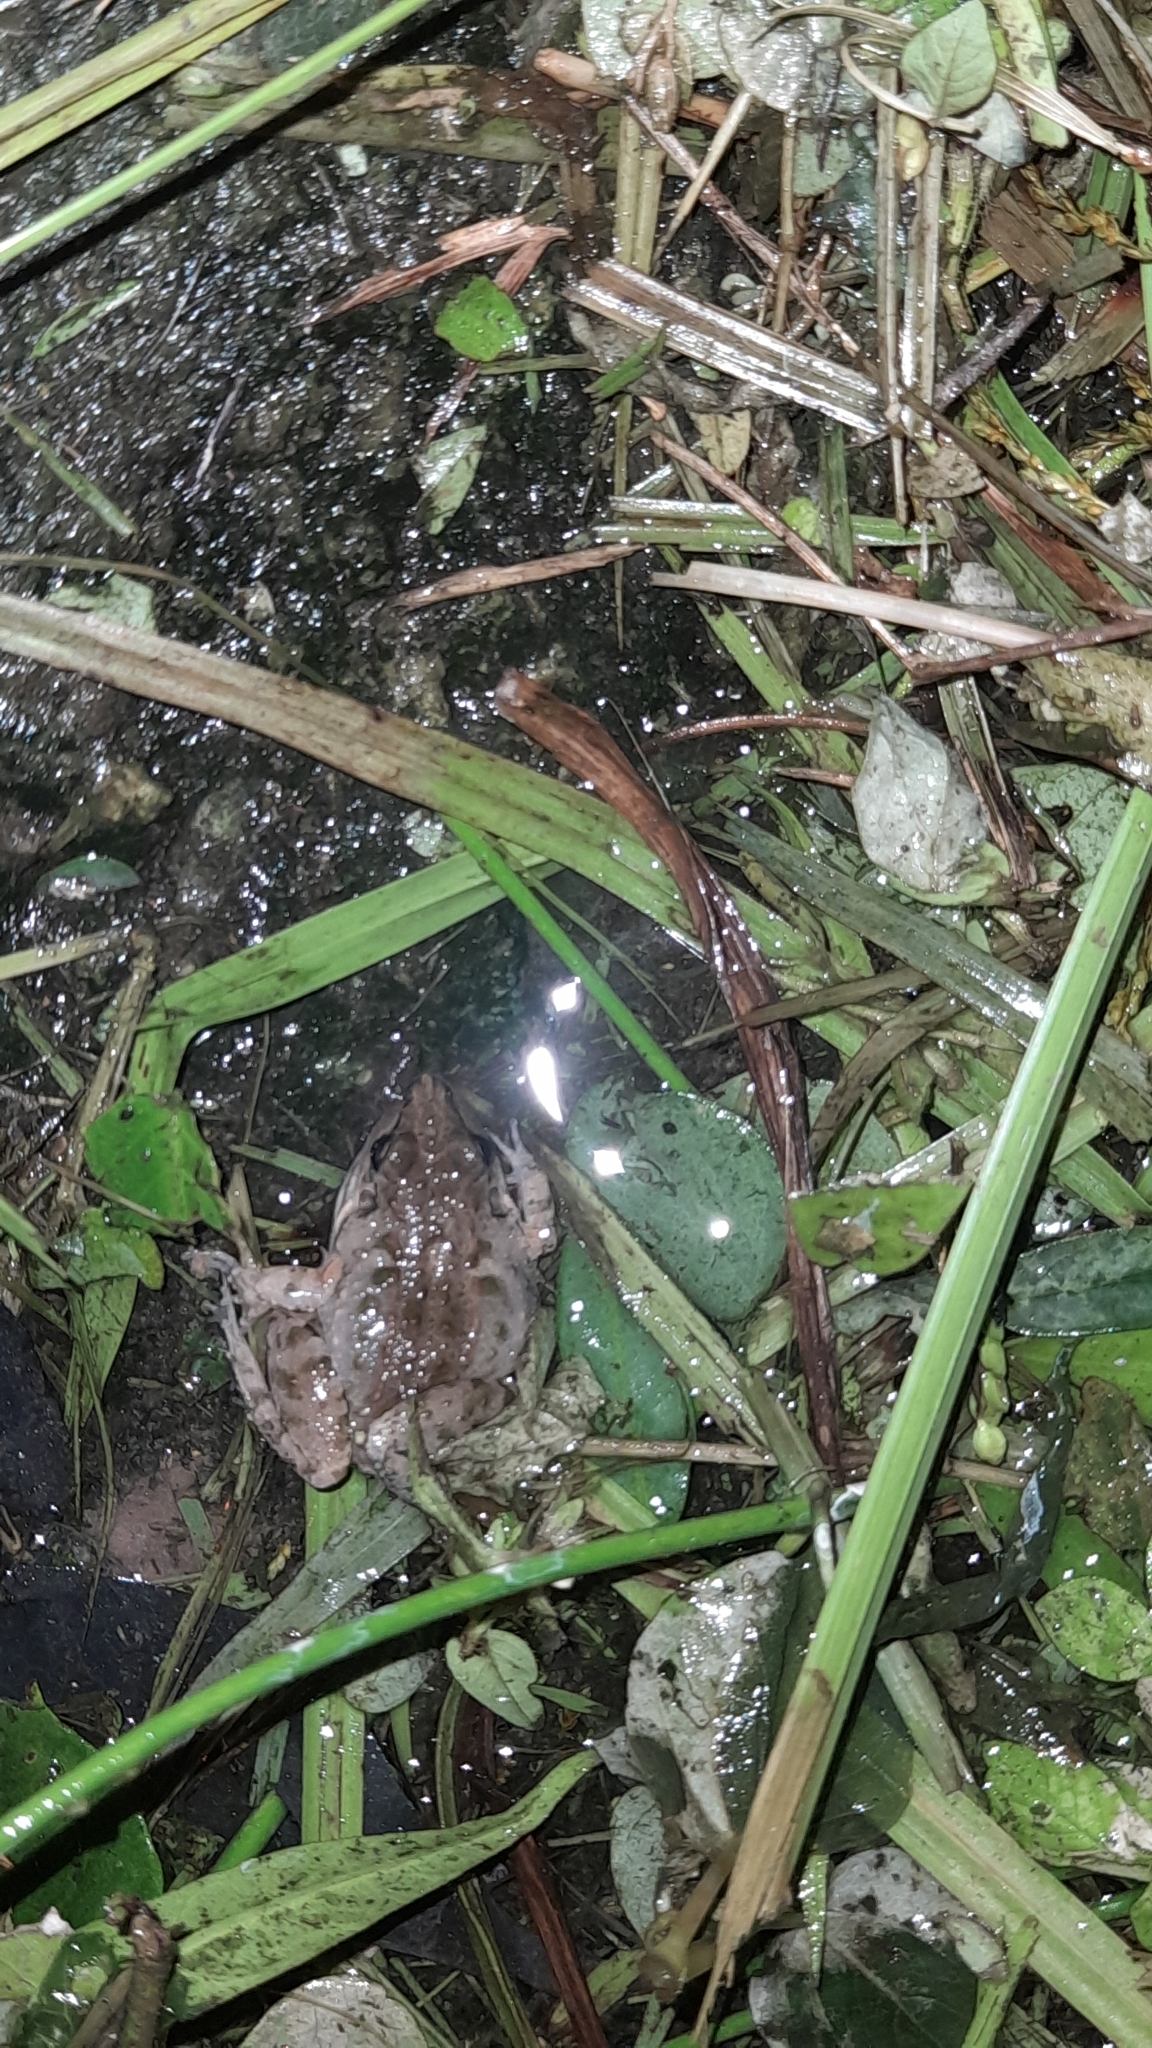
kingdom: Animalia
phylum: Chordata
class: Amphibia
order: Anura
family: Leptodactylidae
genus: Leptodactylus
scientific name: Leptodactylus fragilis
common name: Mexican white-lipped frog
